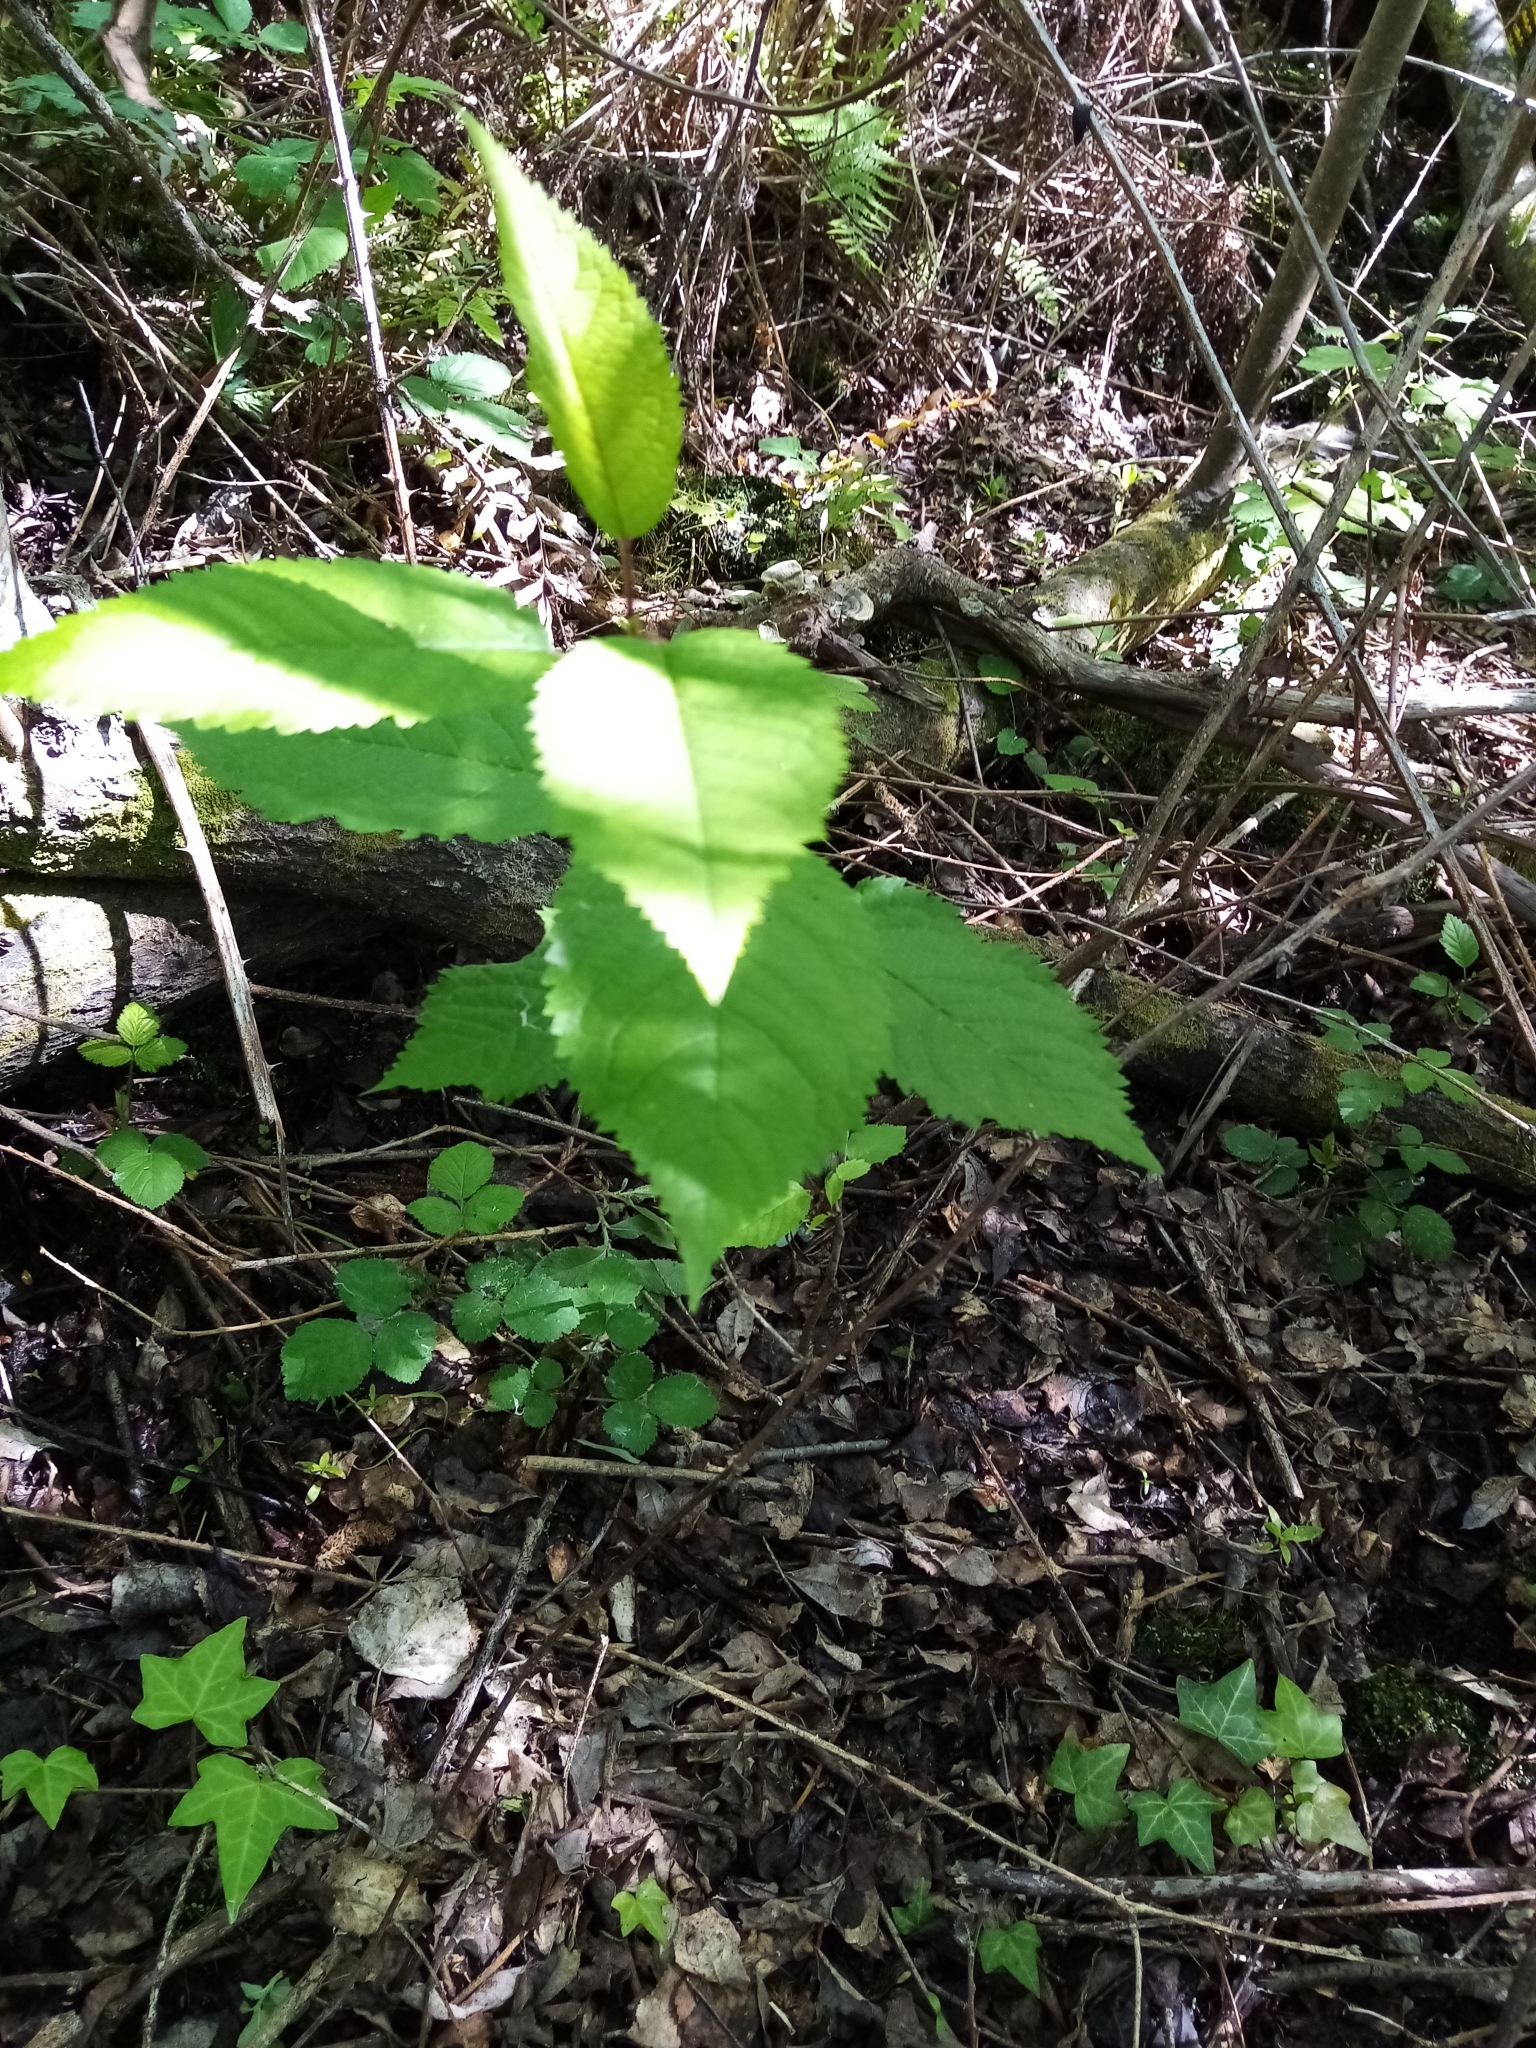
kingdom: Plantae
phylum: Tracheophyta
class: Magnoliopsida
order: Rosales
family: Rosaceae
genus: Prunus
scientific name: Prunus avium
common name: Sweet cherry
